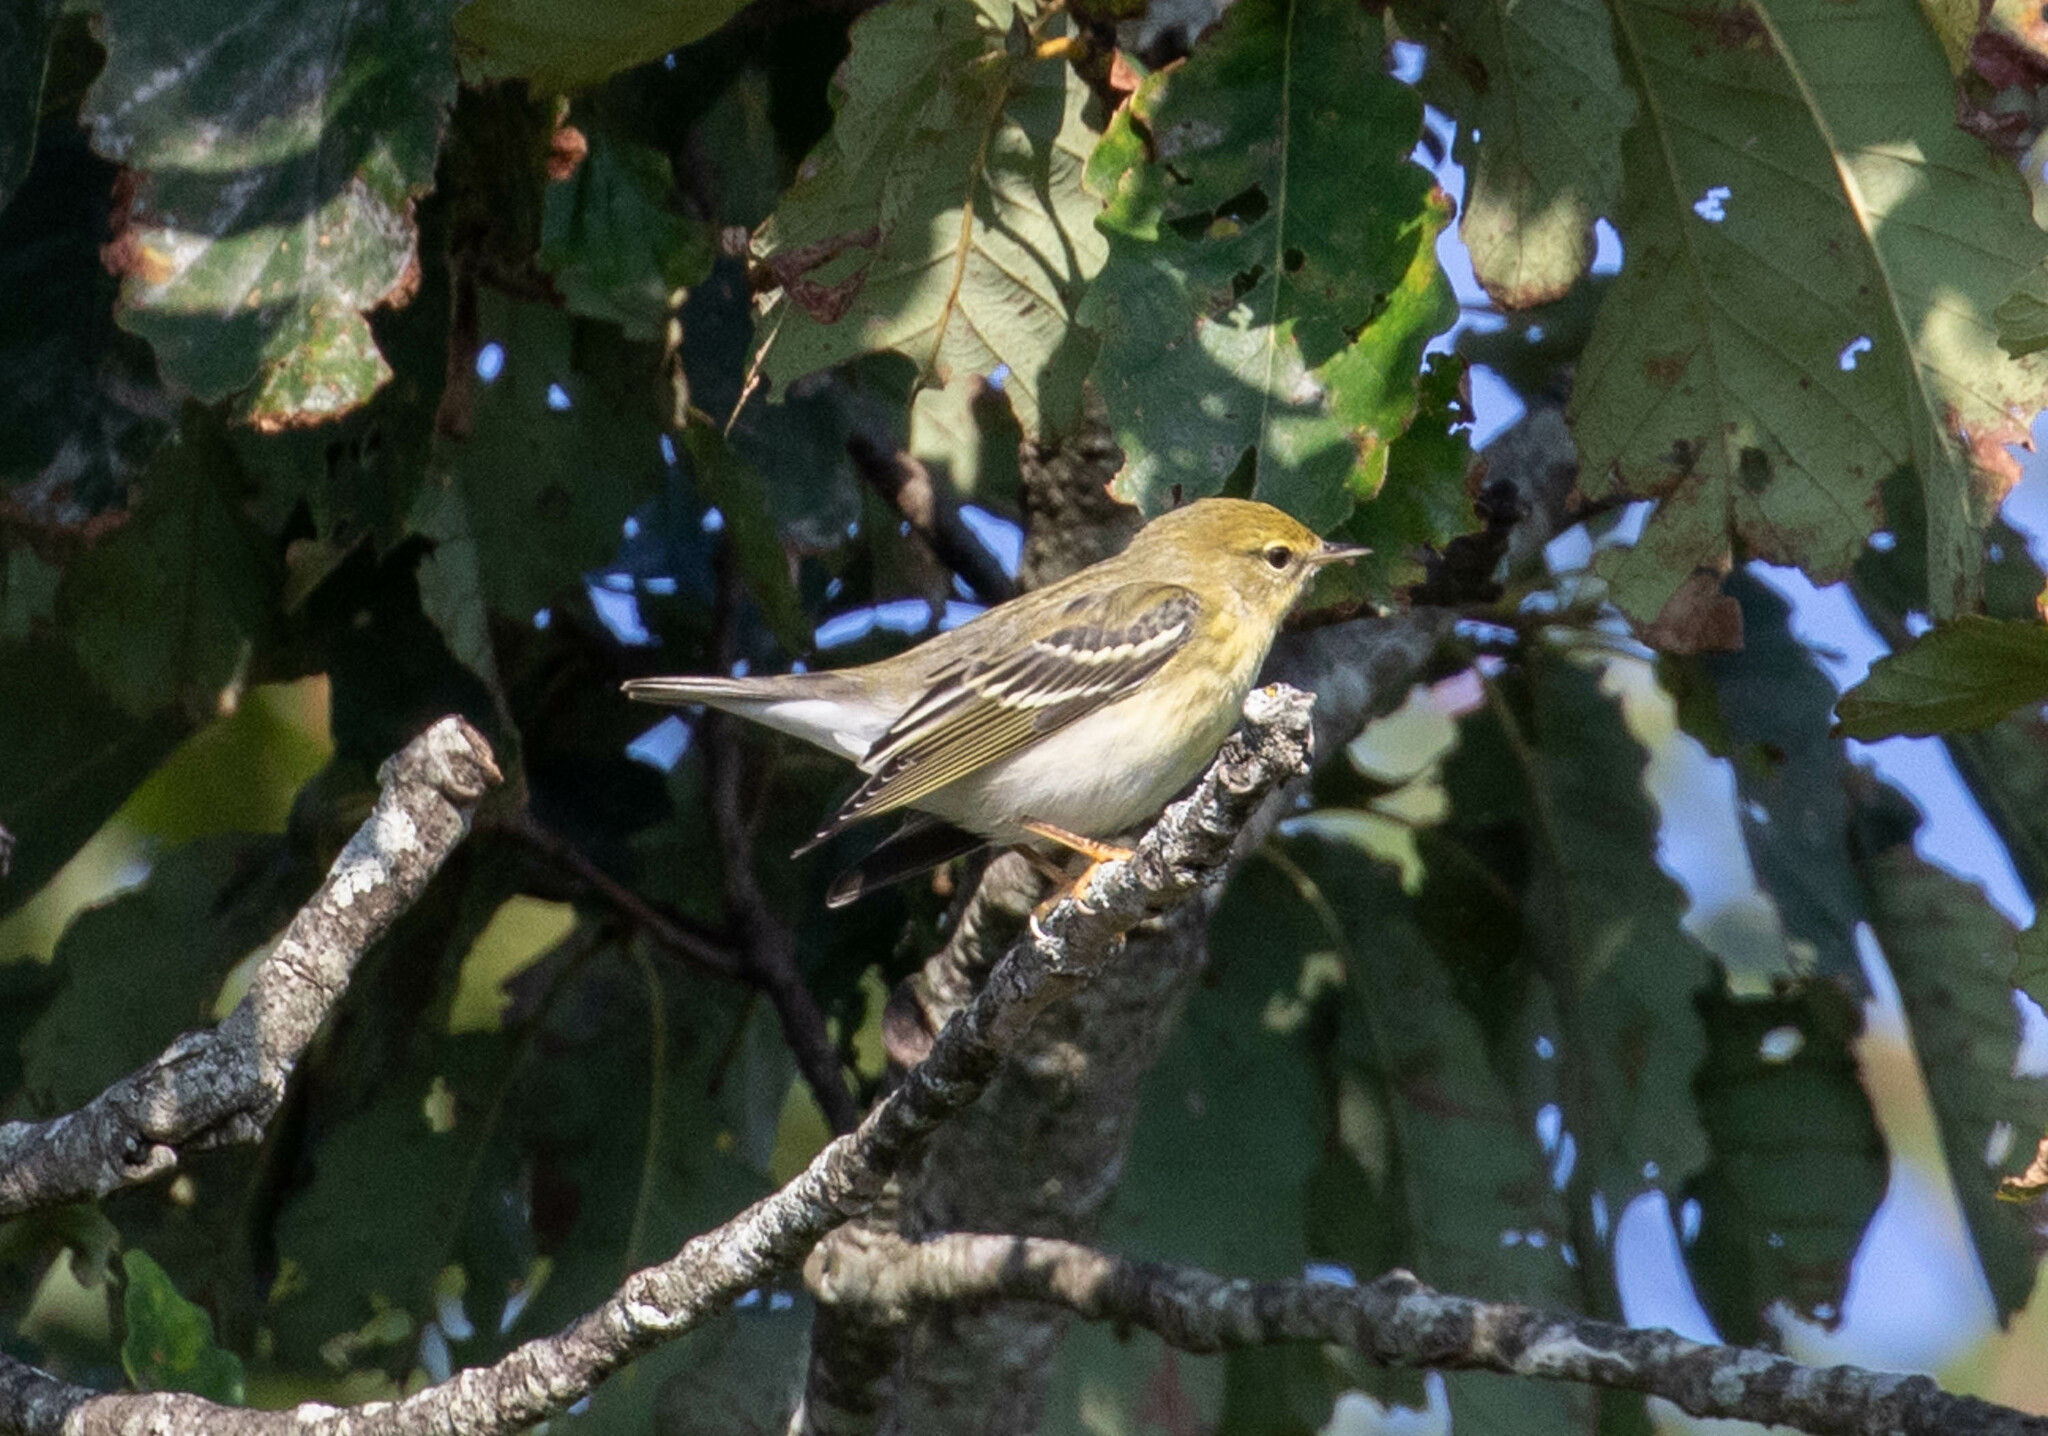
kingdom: Animalia
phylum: Chordata
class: Aves
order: Passeriformes
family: Parulidae
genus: Setophaga
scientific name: Setophaga striata
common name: Blackpoll warbler
